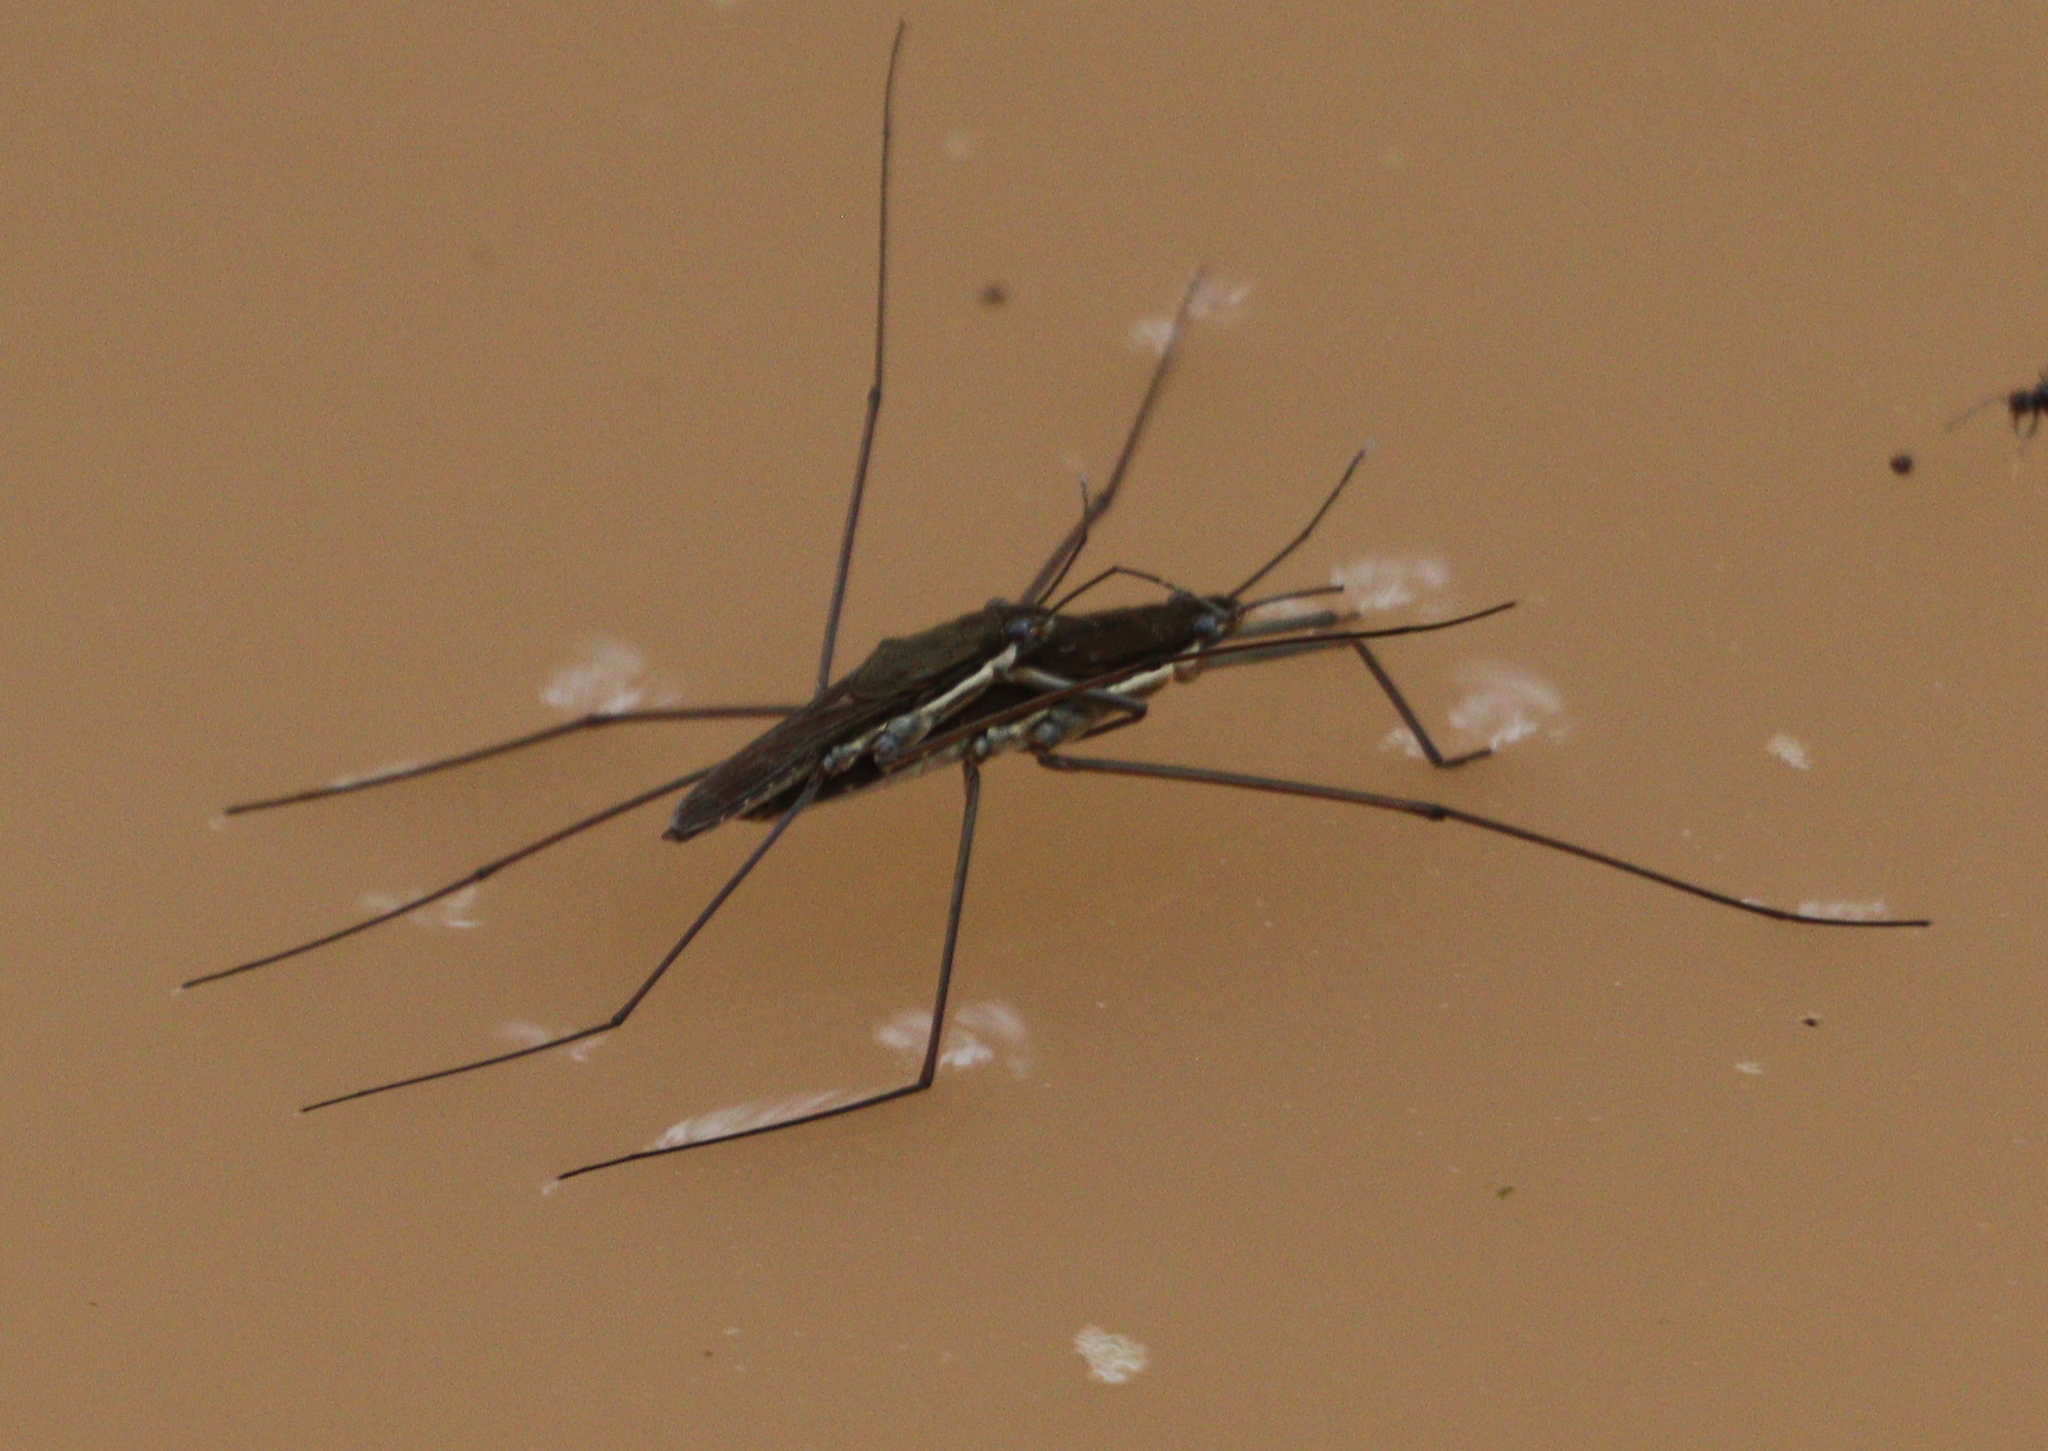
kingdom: Animalia
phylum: Arthropoda
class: Insecta
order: Hemiptera
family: Gerridae
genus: Aquarius
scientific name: Aquarius ventralis
